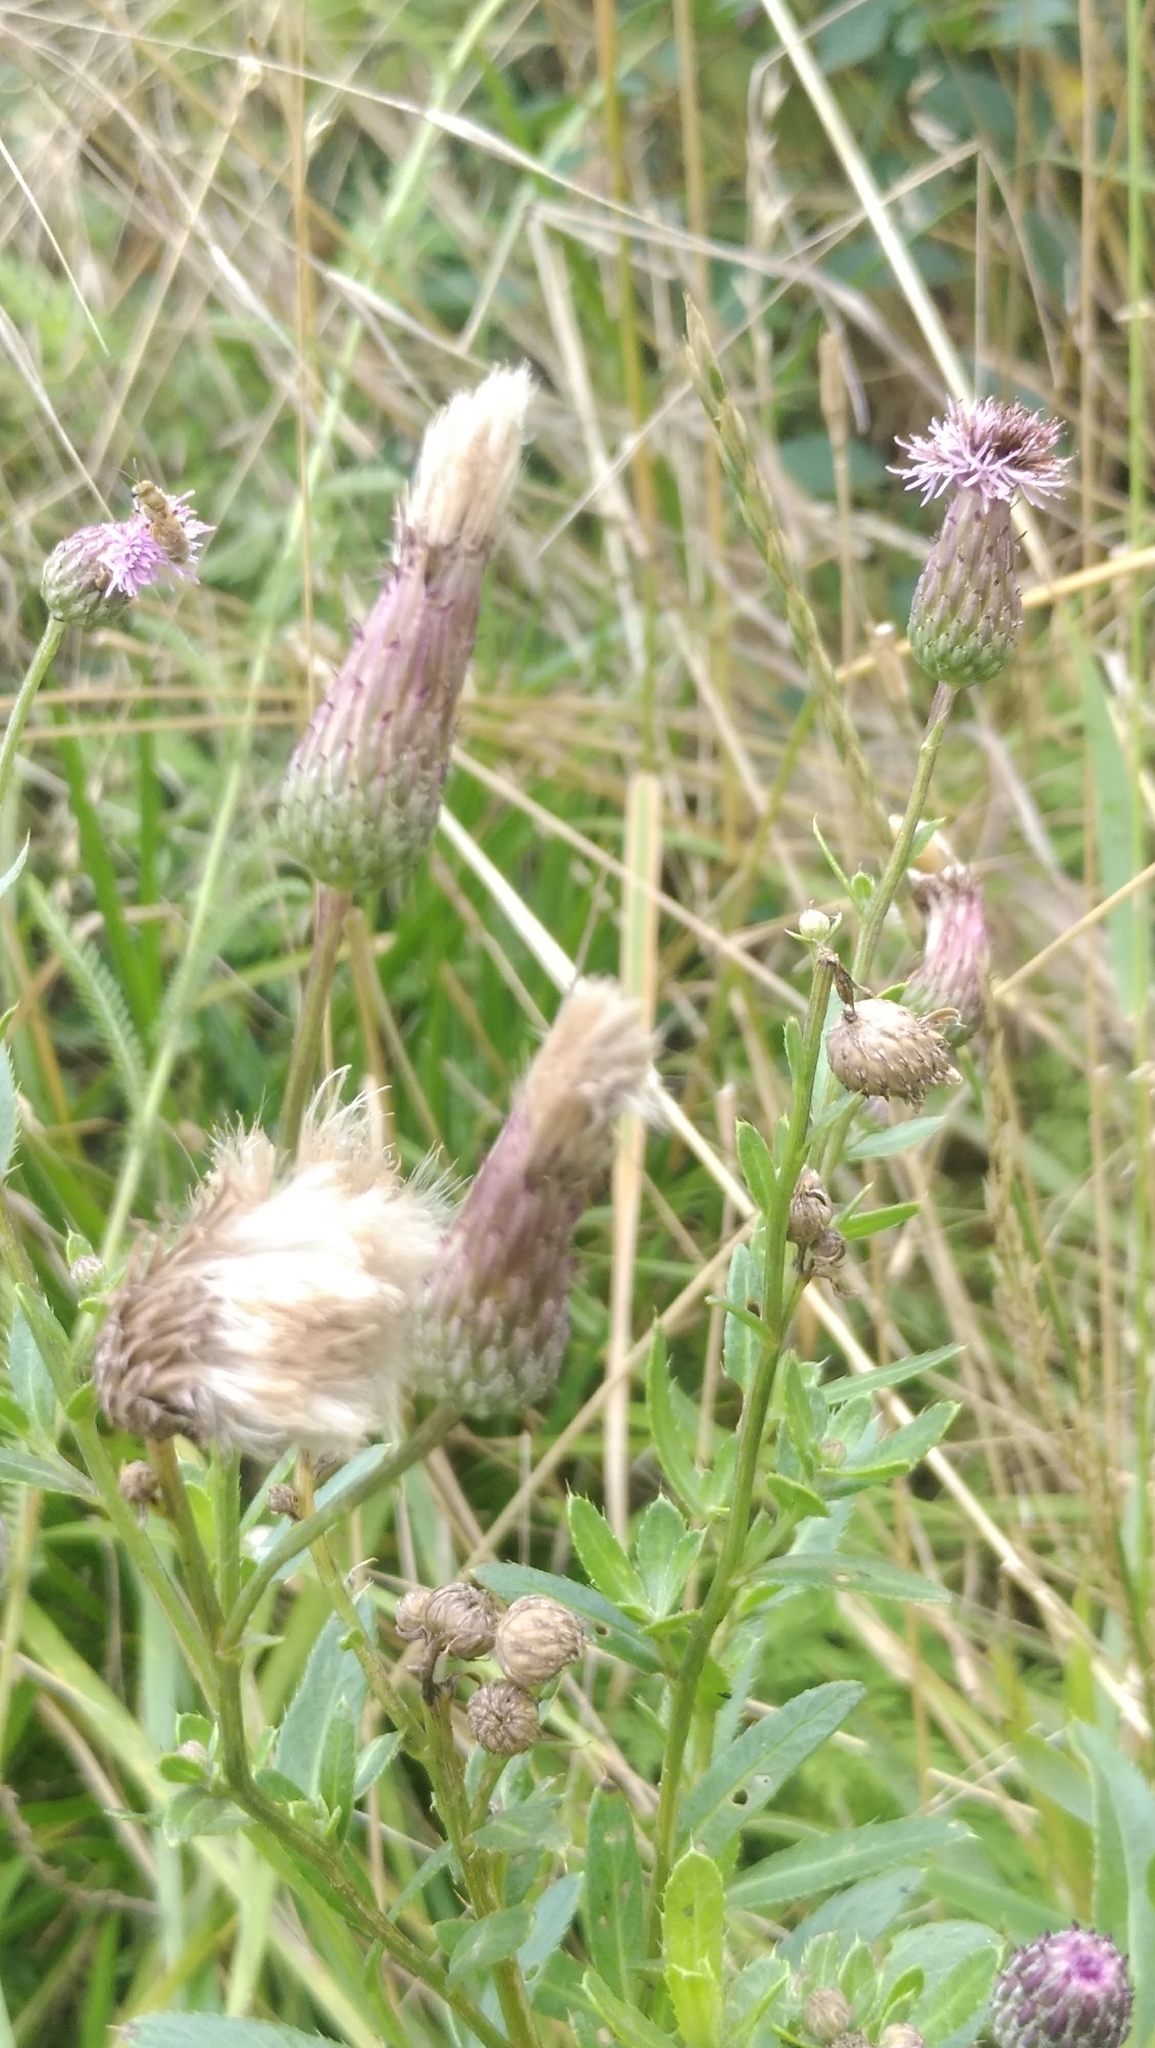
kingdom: Plantae
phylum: Tracheophyta
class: Magnoliopsida
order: Asterales
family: Asteraceae
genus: Cirsium
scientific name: Cirsium arvense
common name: Creeping thistle
